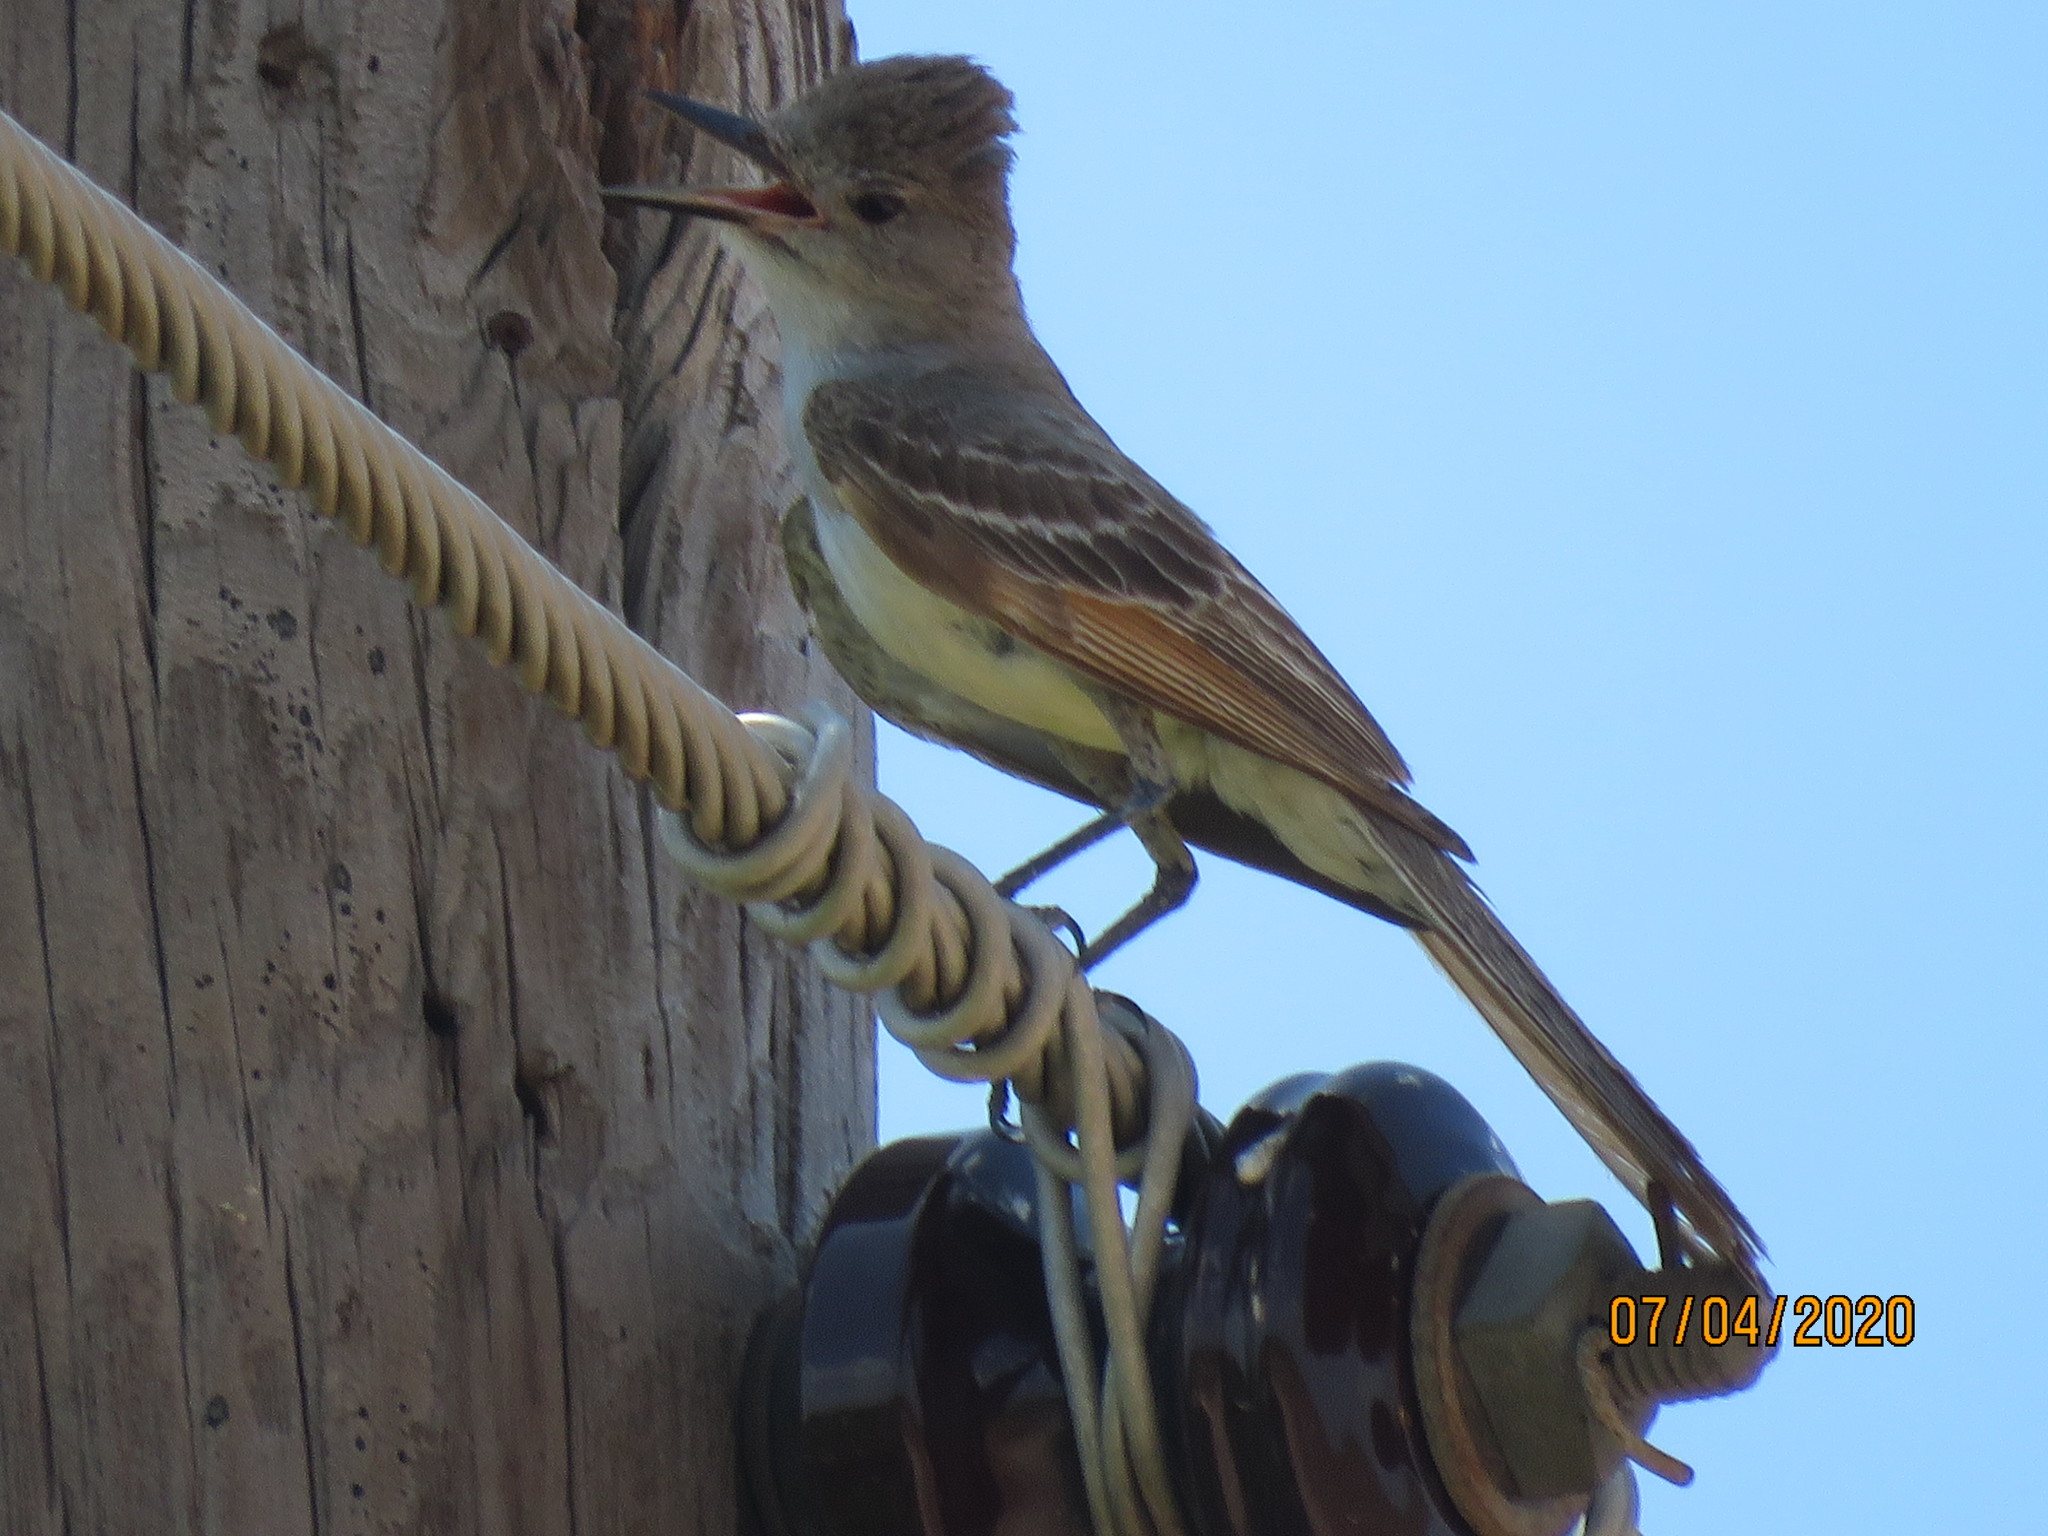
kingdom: Animalia
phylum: Chordata
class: Aves
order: Passeriformes
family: Tyrannidae
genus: Myiarchus
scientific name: Myiarchus cinerascens
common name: Ash-throated flycatcher
